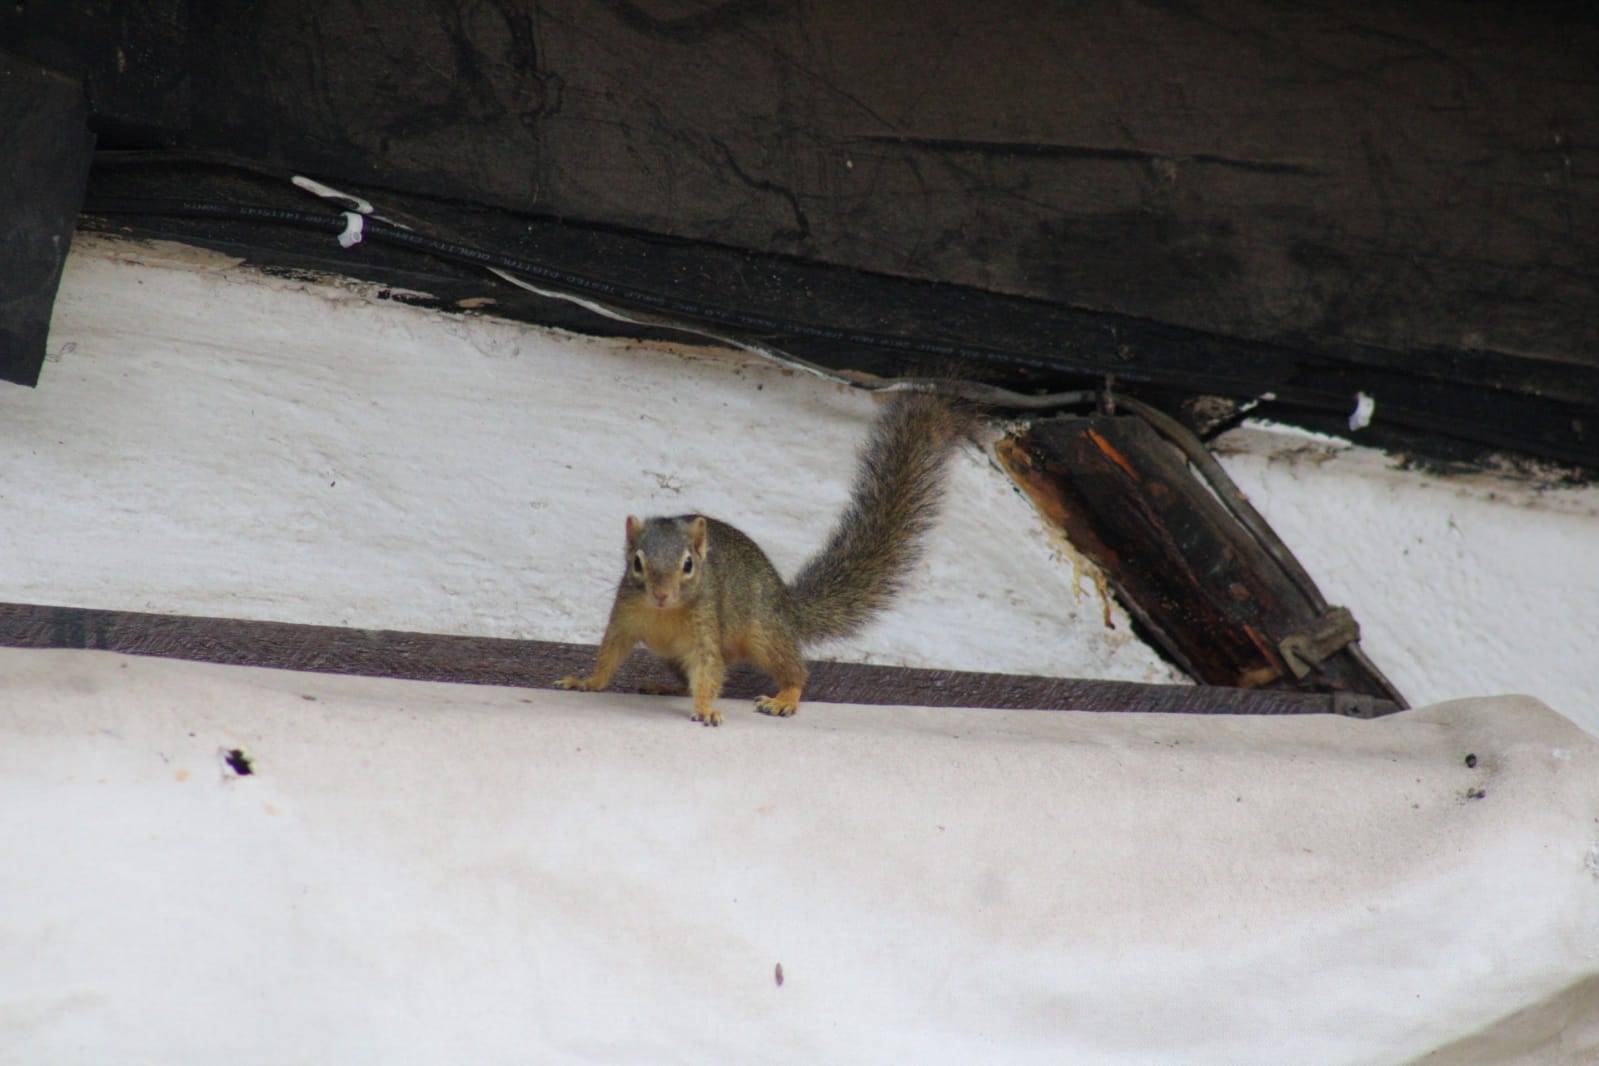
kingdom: Animalia
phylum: Chordata
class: Mammalia
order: Rodentia
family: Sciuridae
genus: Paraxerus
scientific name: Paraxerus ochraceus
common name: Ochre bush squirrel
